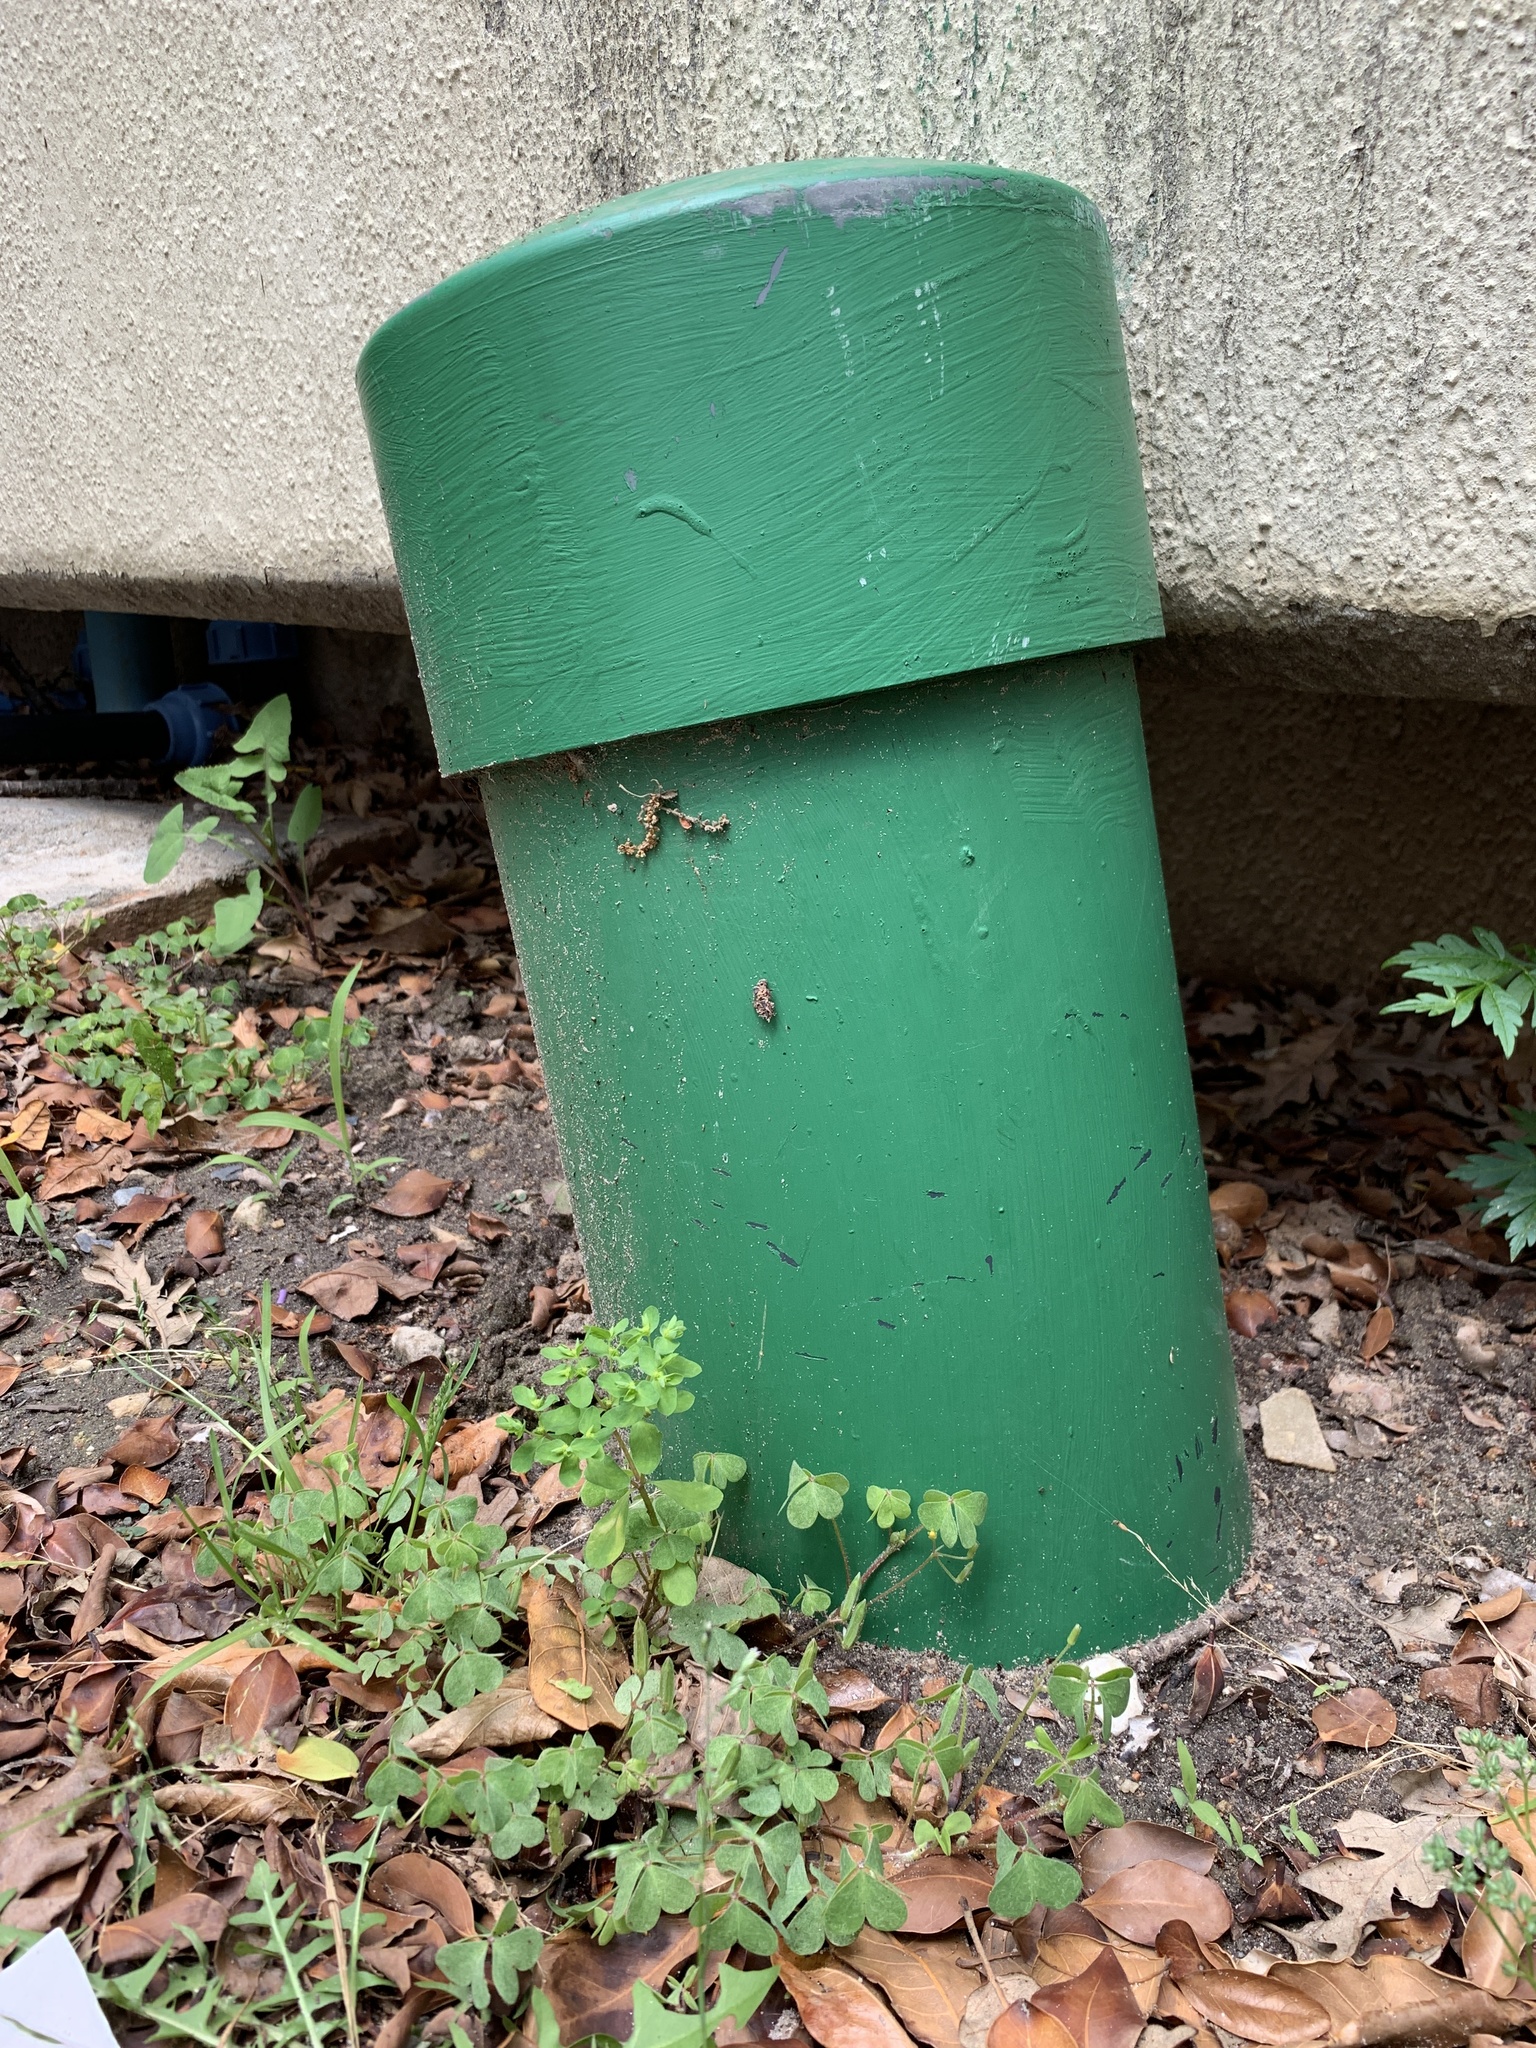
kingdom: Plantae
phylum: Tracheophyta
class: Magnoliopsida
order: Malpighiales
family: Euphorbiaceae
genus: Euphorbia
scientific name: Euphorbia peplus
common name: Petty spurge
